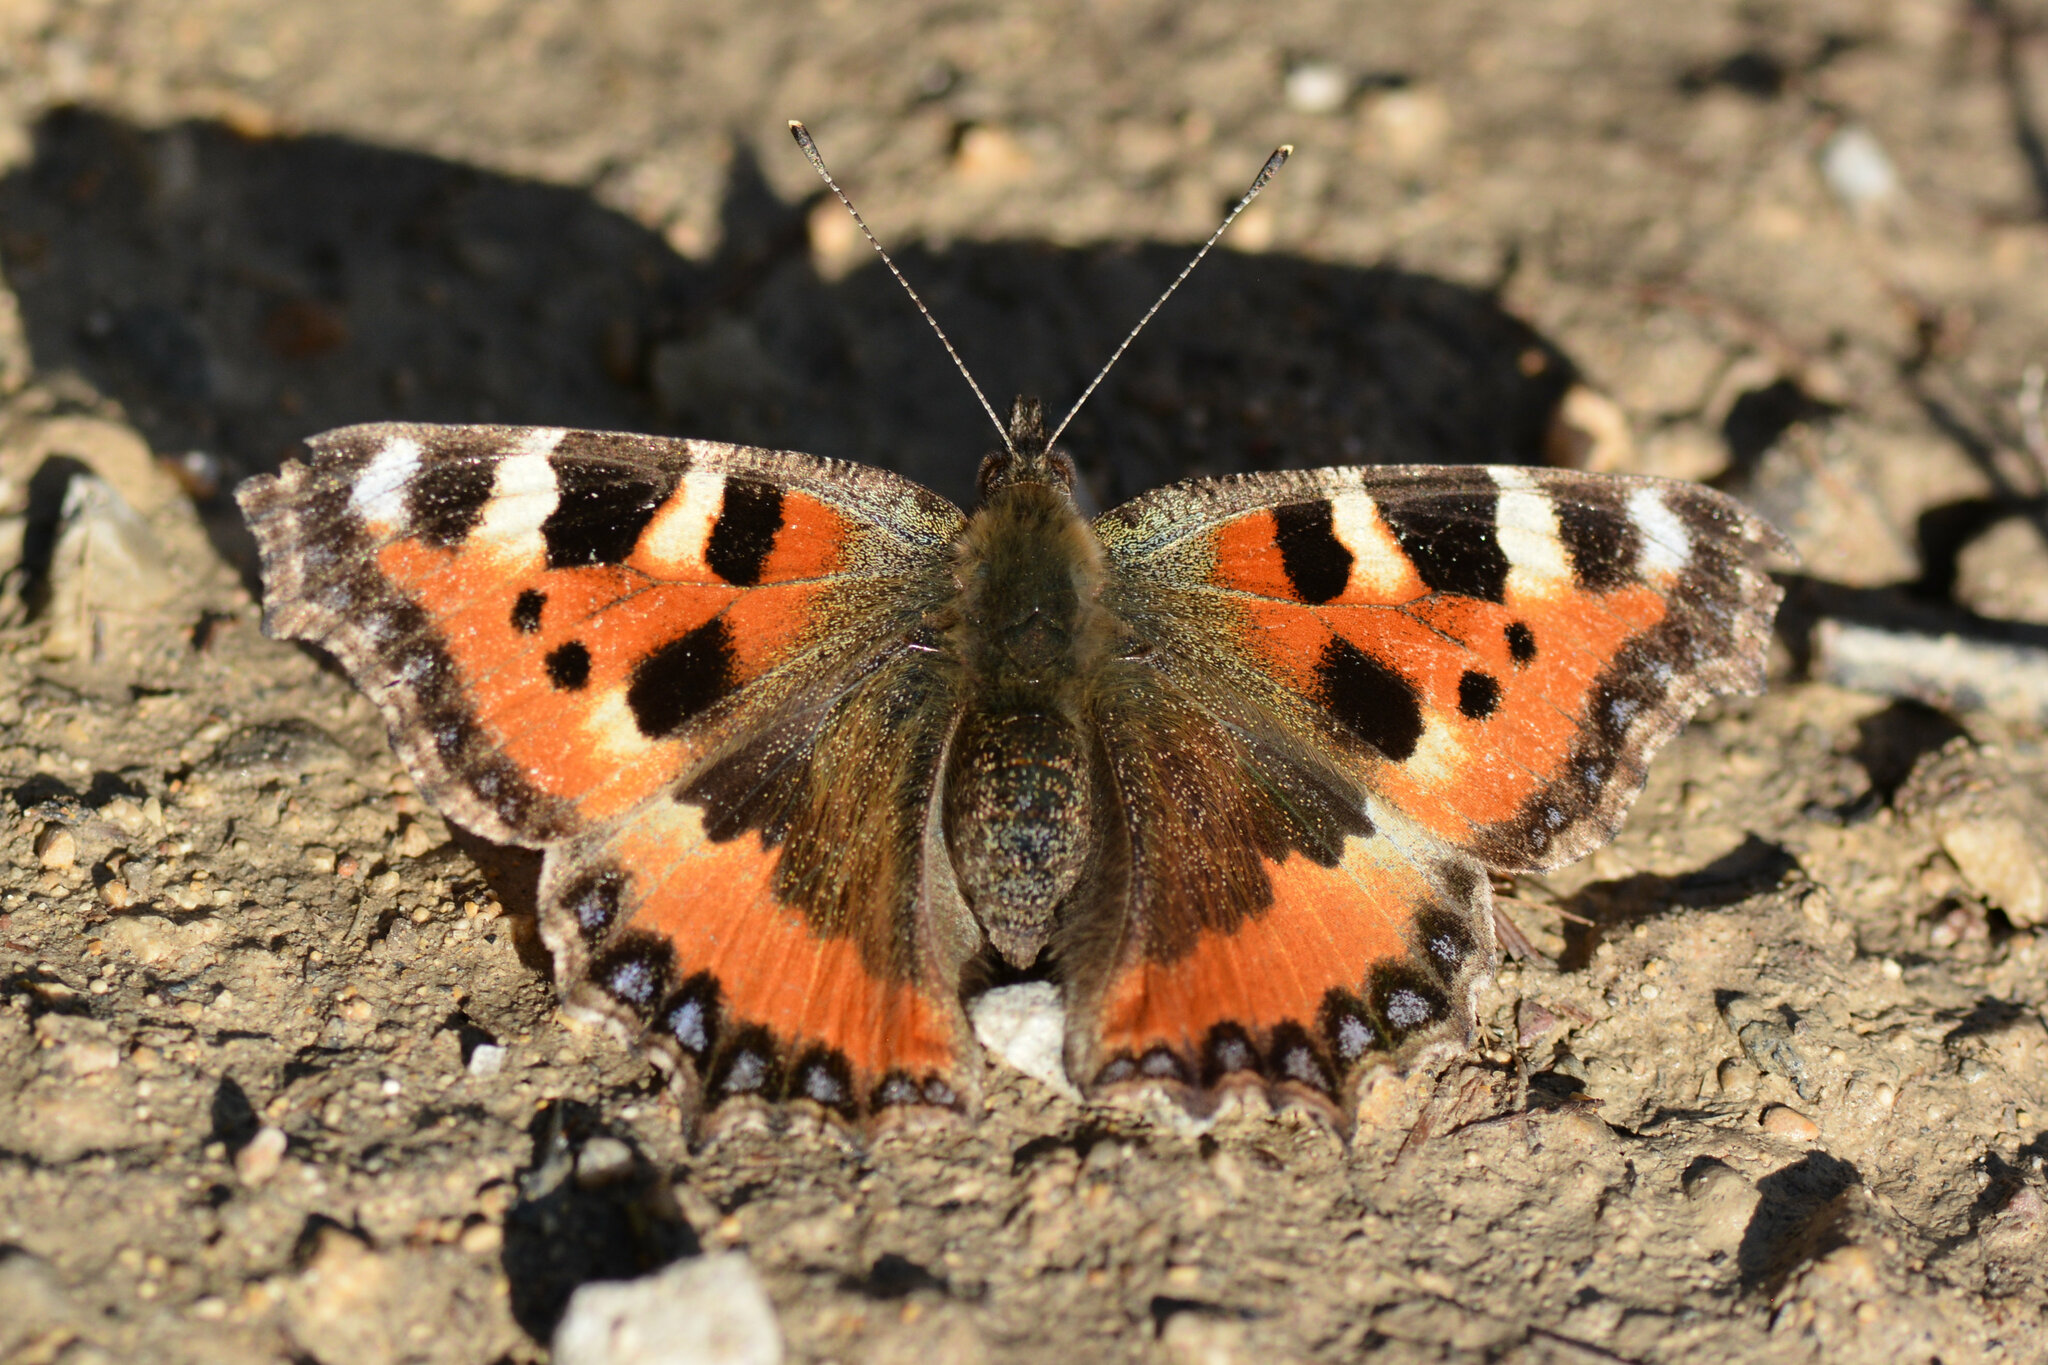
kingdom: Animalia
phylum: Arthropoda
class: Insecta
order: Lepidoptera
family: Nymphalidae
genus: Aglais
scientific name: Aglais urticae
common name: Small tortoiseshell
